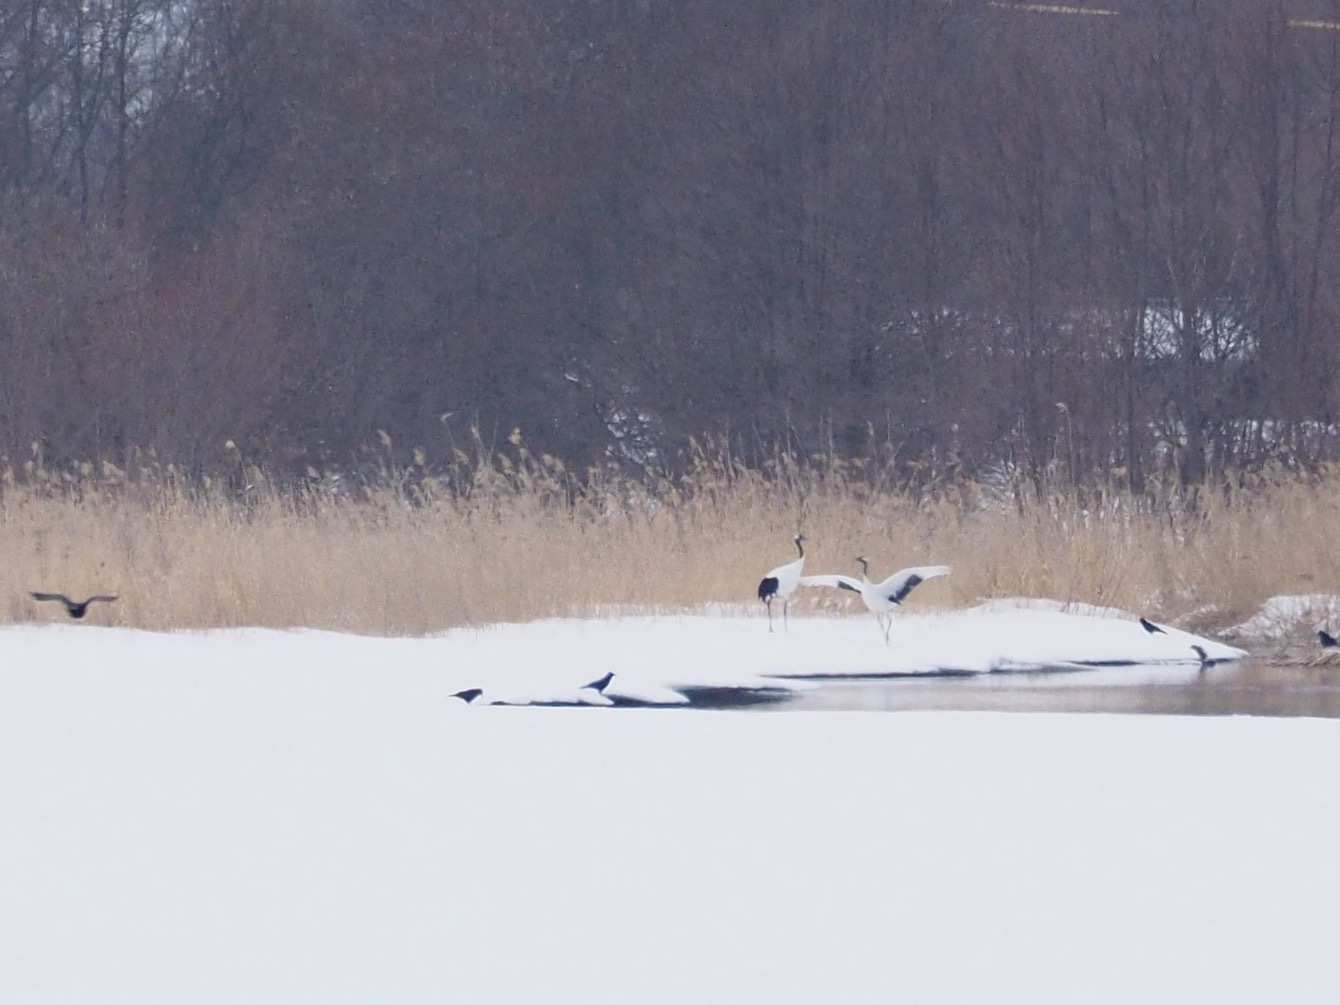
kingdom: Animalia
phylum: Chordata
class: Aves
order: Gruiformes
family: Gruidae
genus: Grus
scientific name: Grus japonensis
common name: Red-crowned crane
